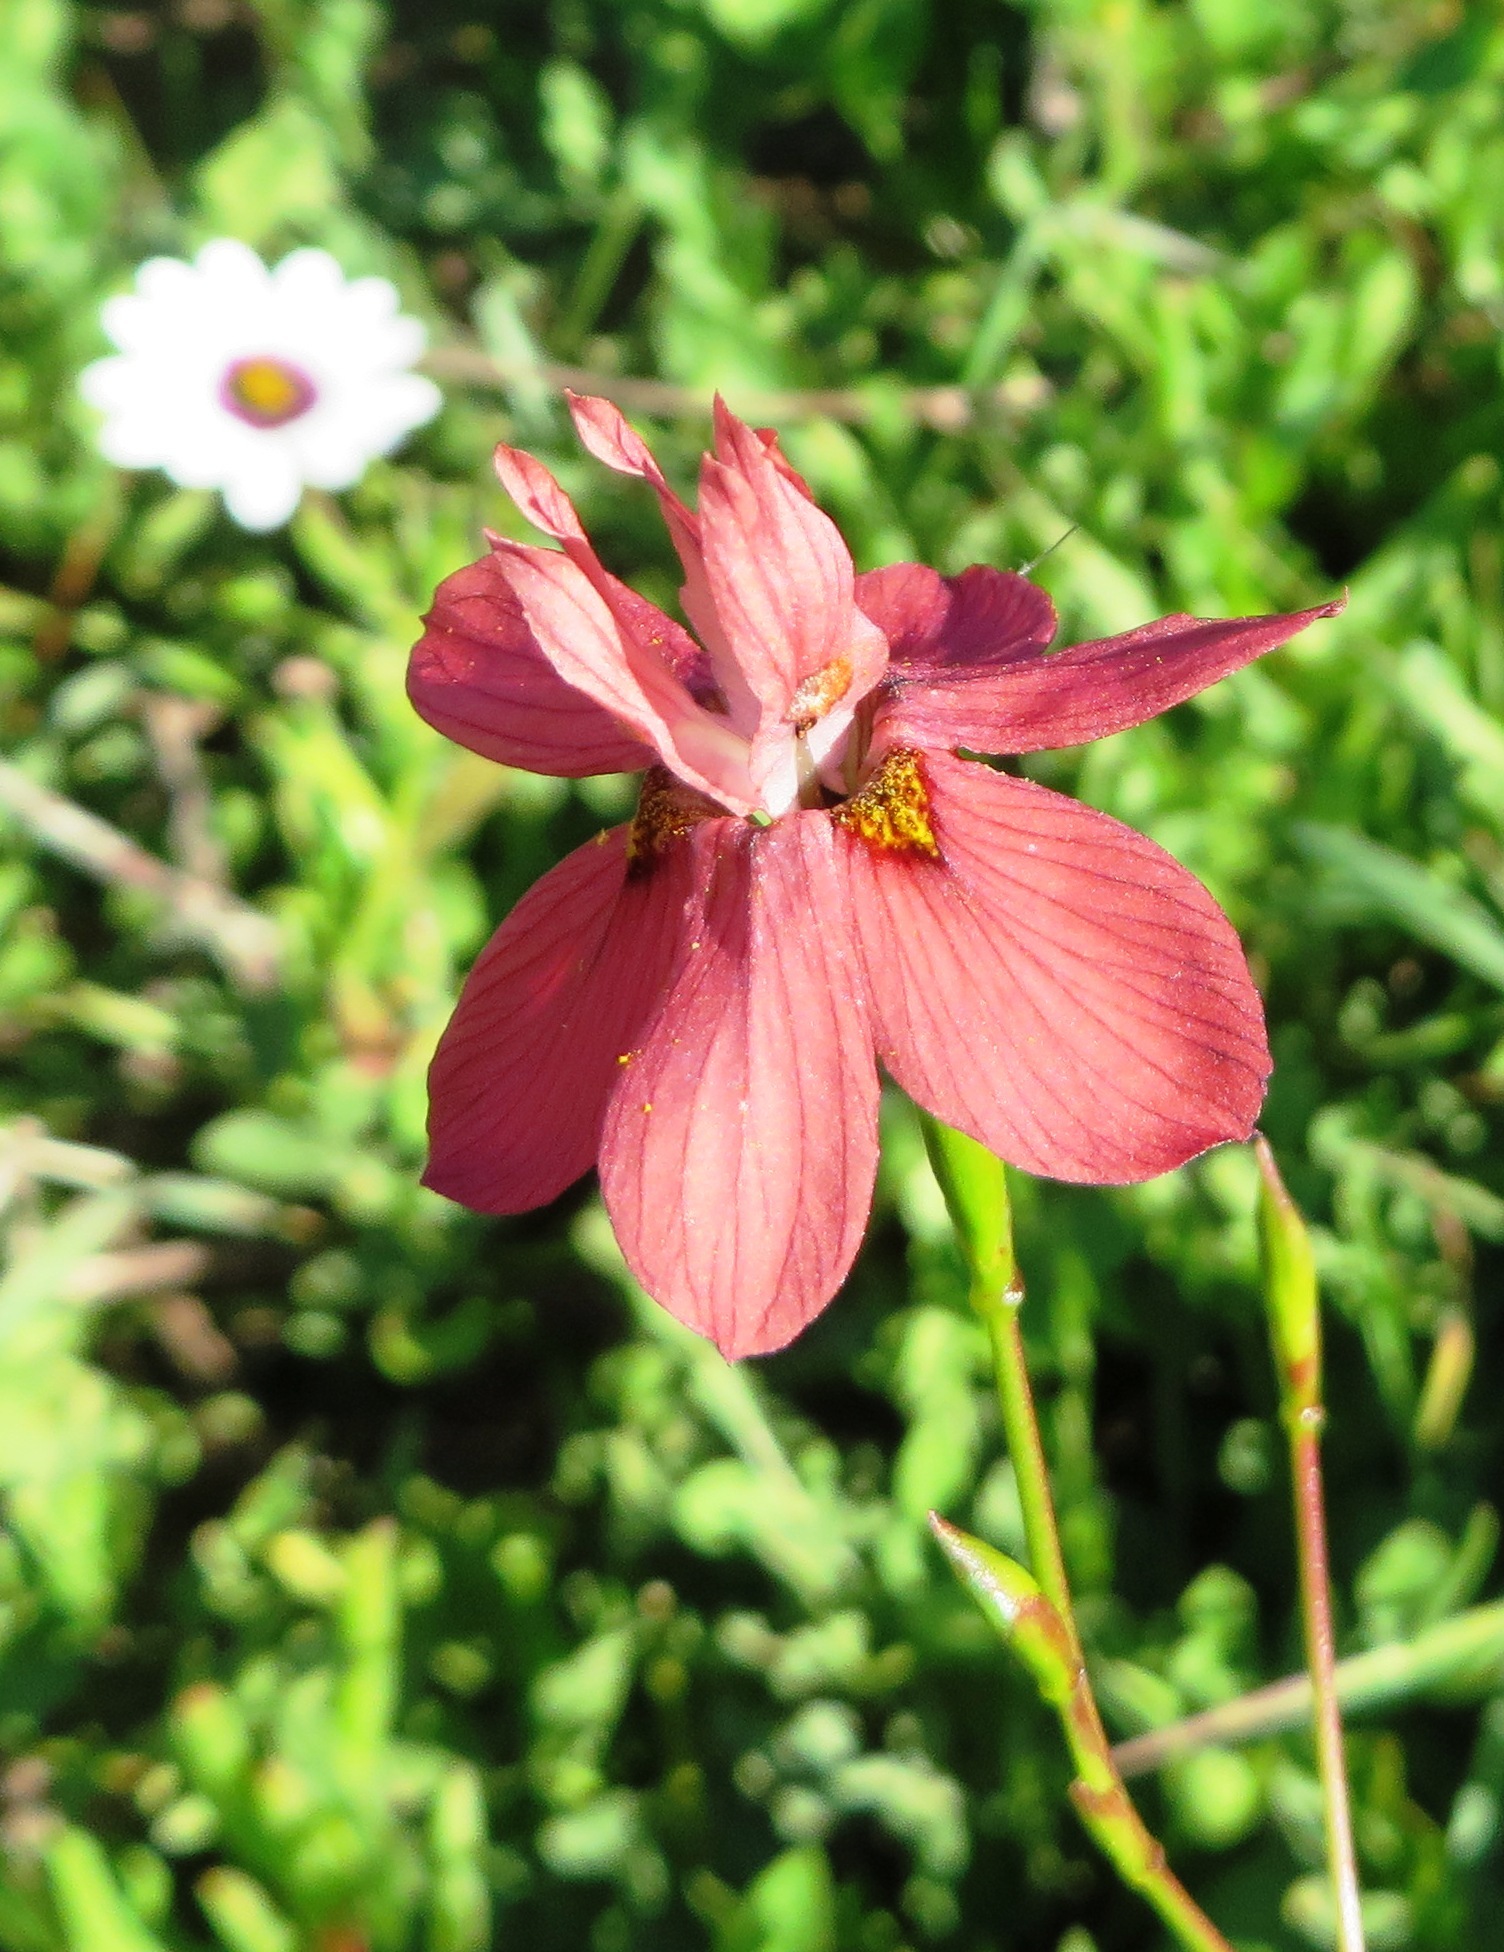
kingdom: Plantae
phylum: Tracheophyta
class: Liliopsida
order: Asparagales
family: Iridaceae
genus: Moraea
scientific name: Moraea gawleri
